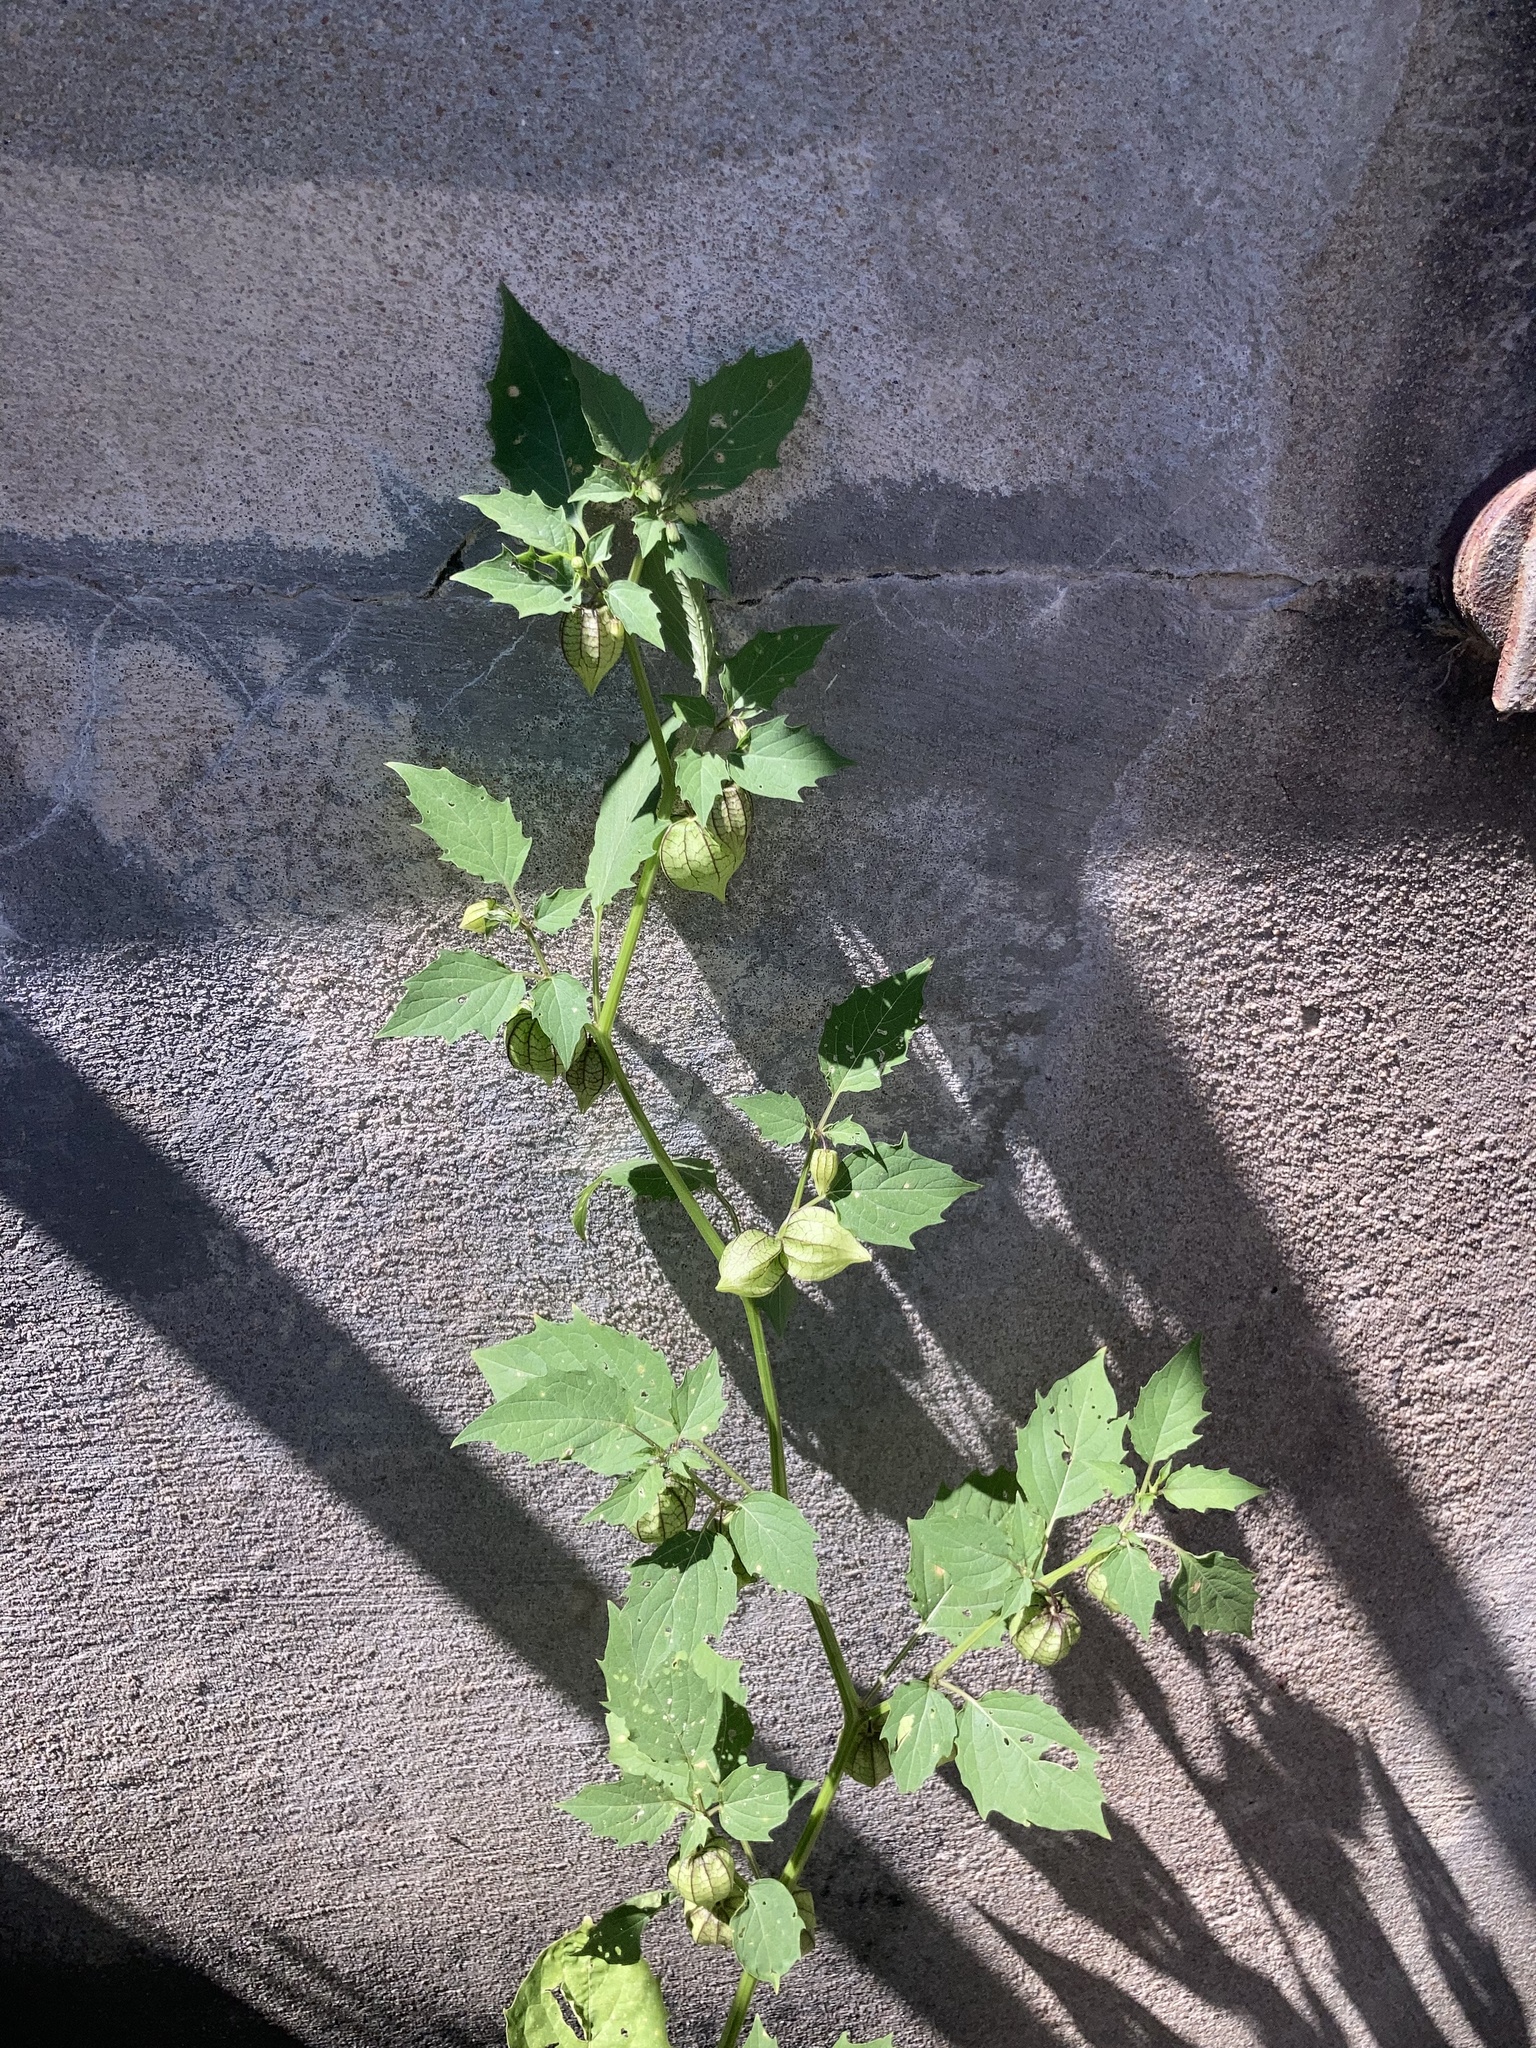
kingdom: Plantae
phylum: Tracheophyta
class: Magnoliopsida
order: Solanales
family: Solanaceae
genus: Physalis
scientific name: Physalis angulata
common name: Angular winter-cherry
